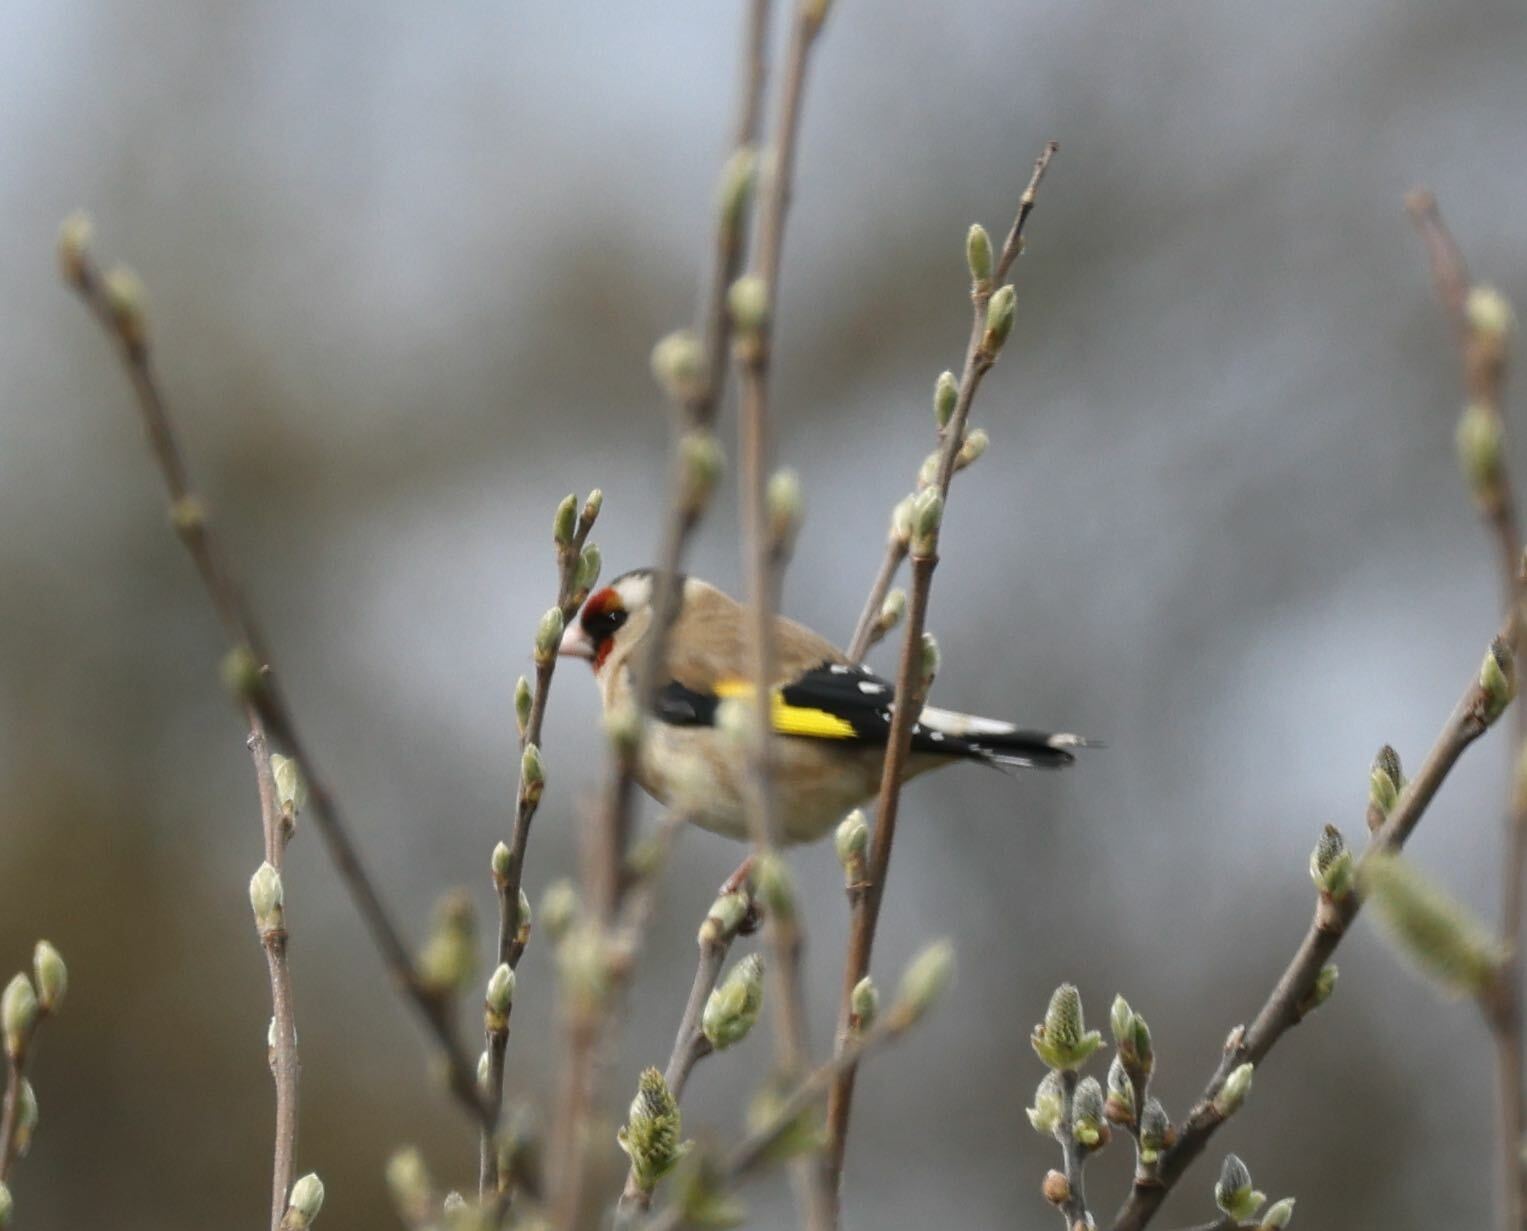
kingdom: Animalia
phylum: Chordata
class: Aves
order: Passeriformes
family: Fringillidae
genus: Carduelis
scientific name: Carduelis carduelis
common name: European goldfinch
